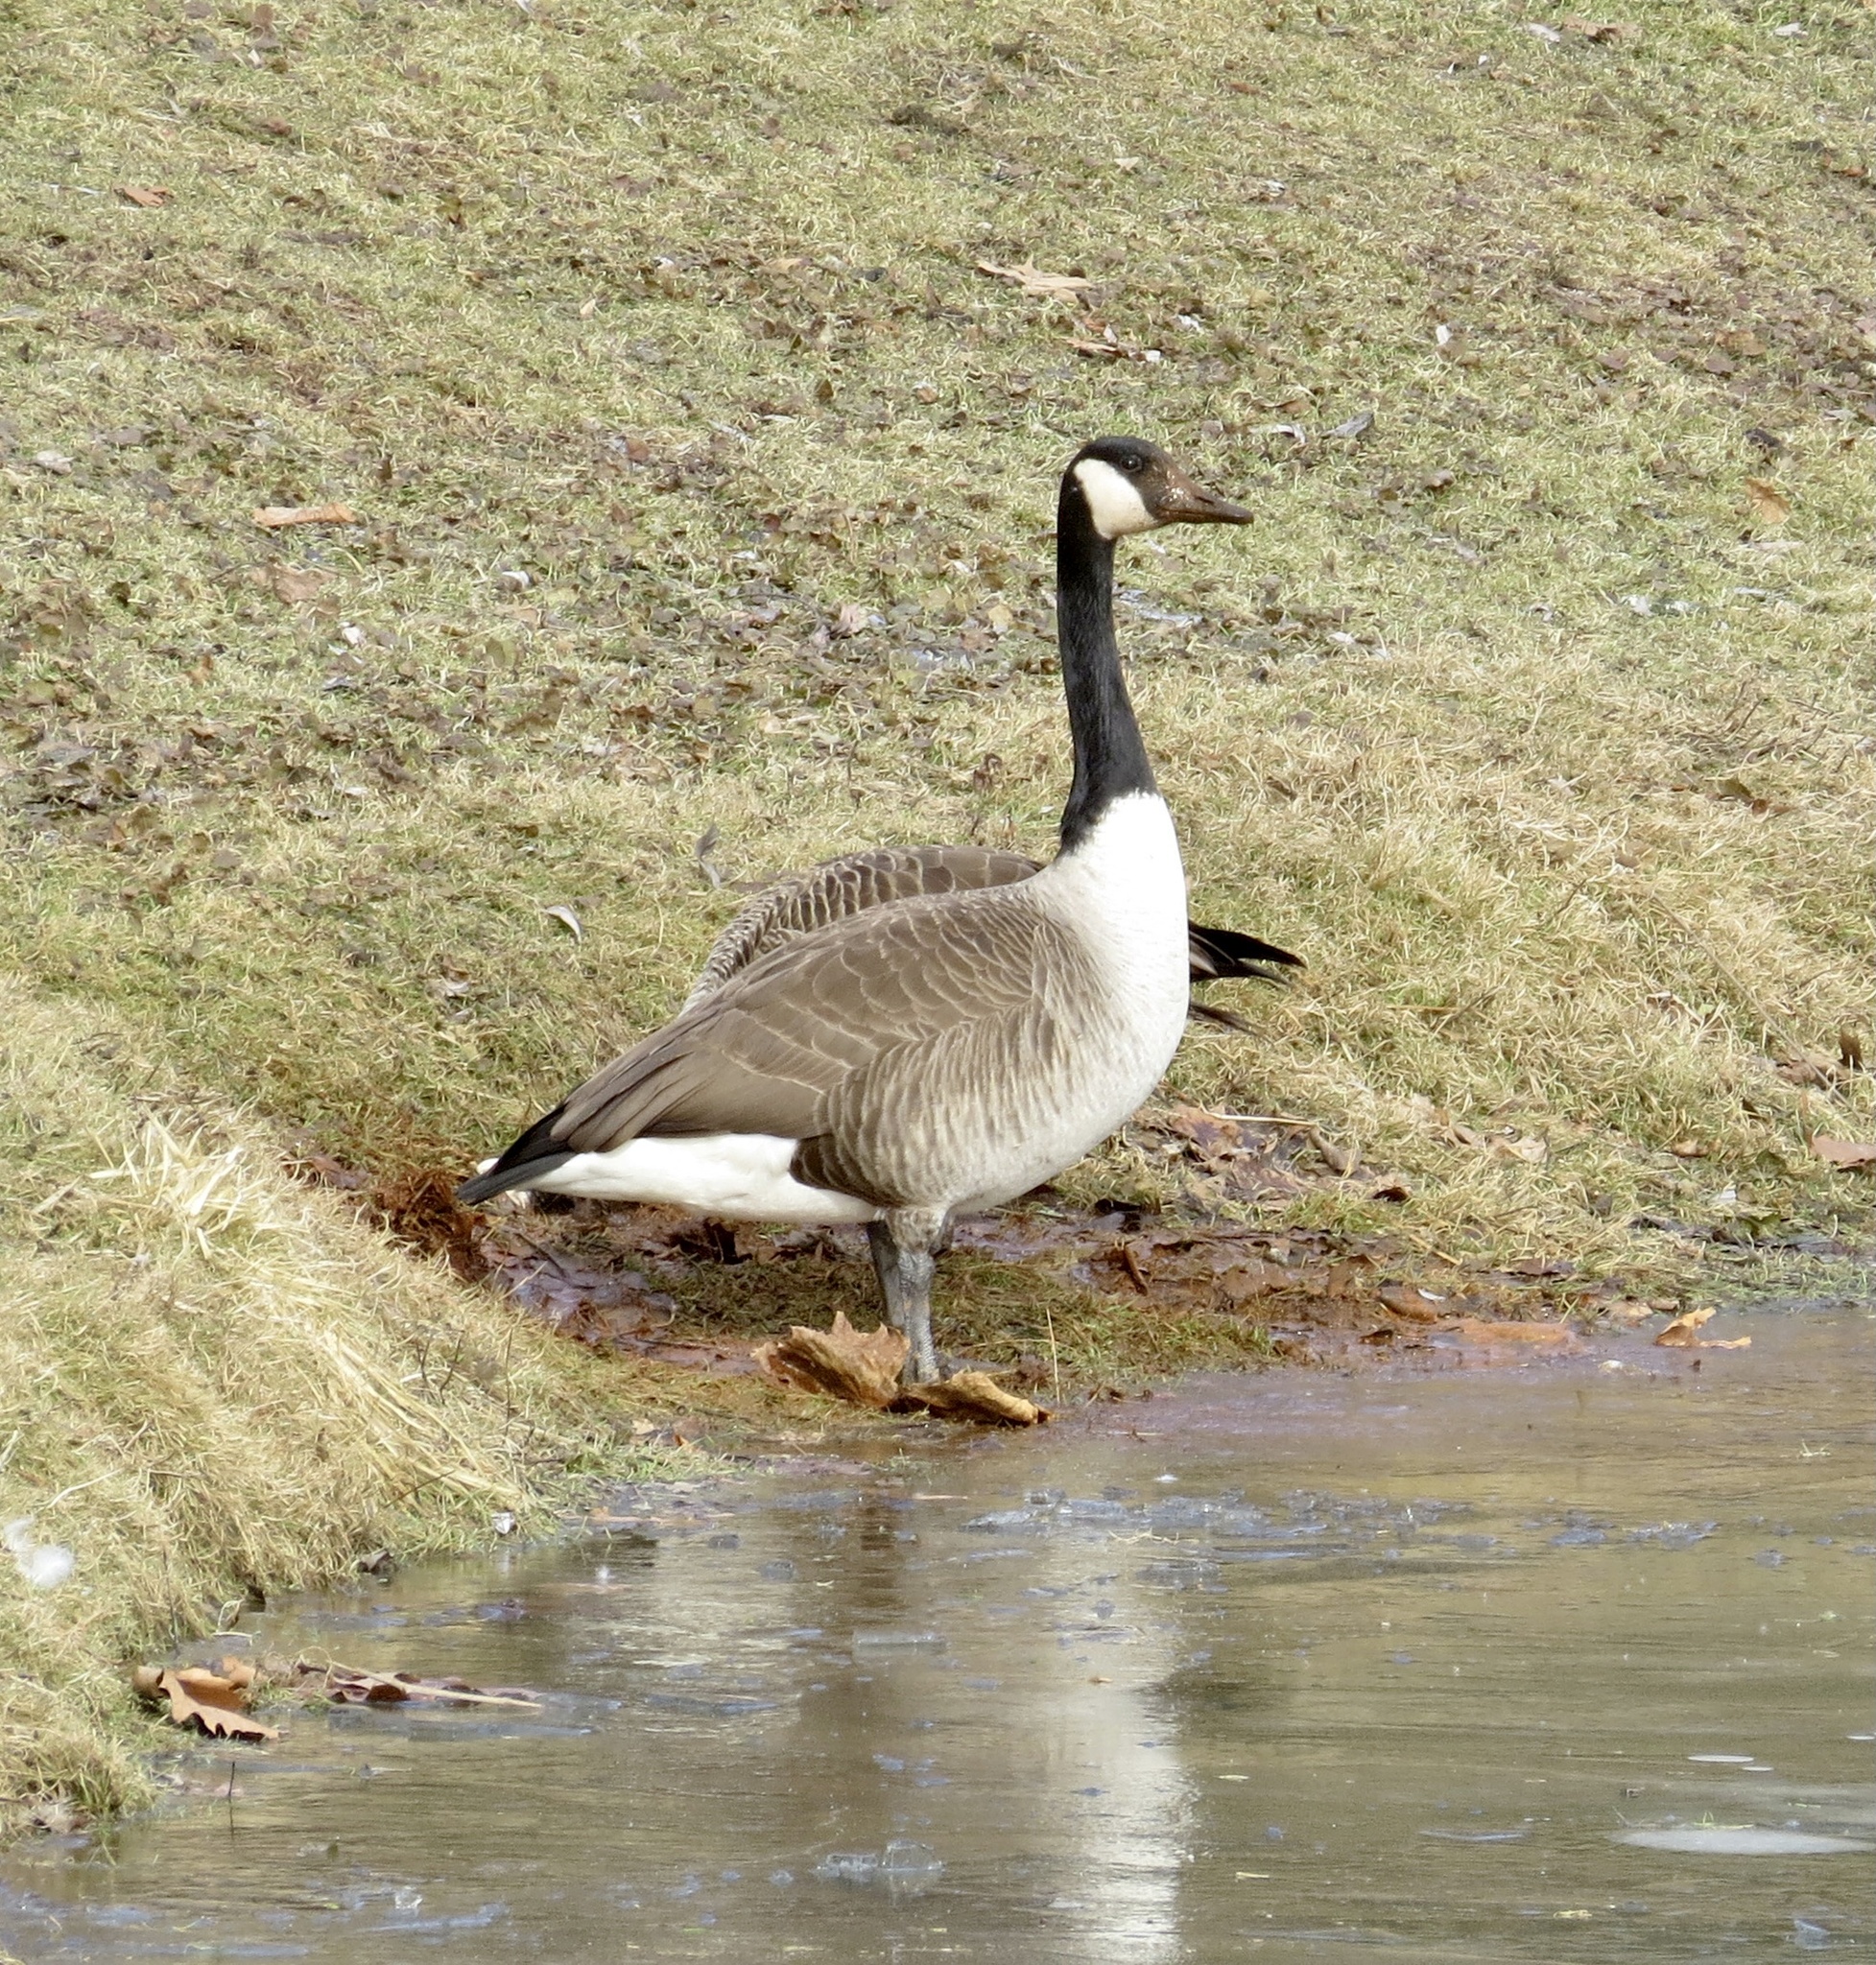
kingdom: Animalia
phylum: Chordata
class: Aves
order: Anseriformes
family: Anatidae
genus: Branta
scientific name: Branta canadensis
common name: Canada goose
